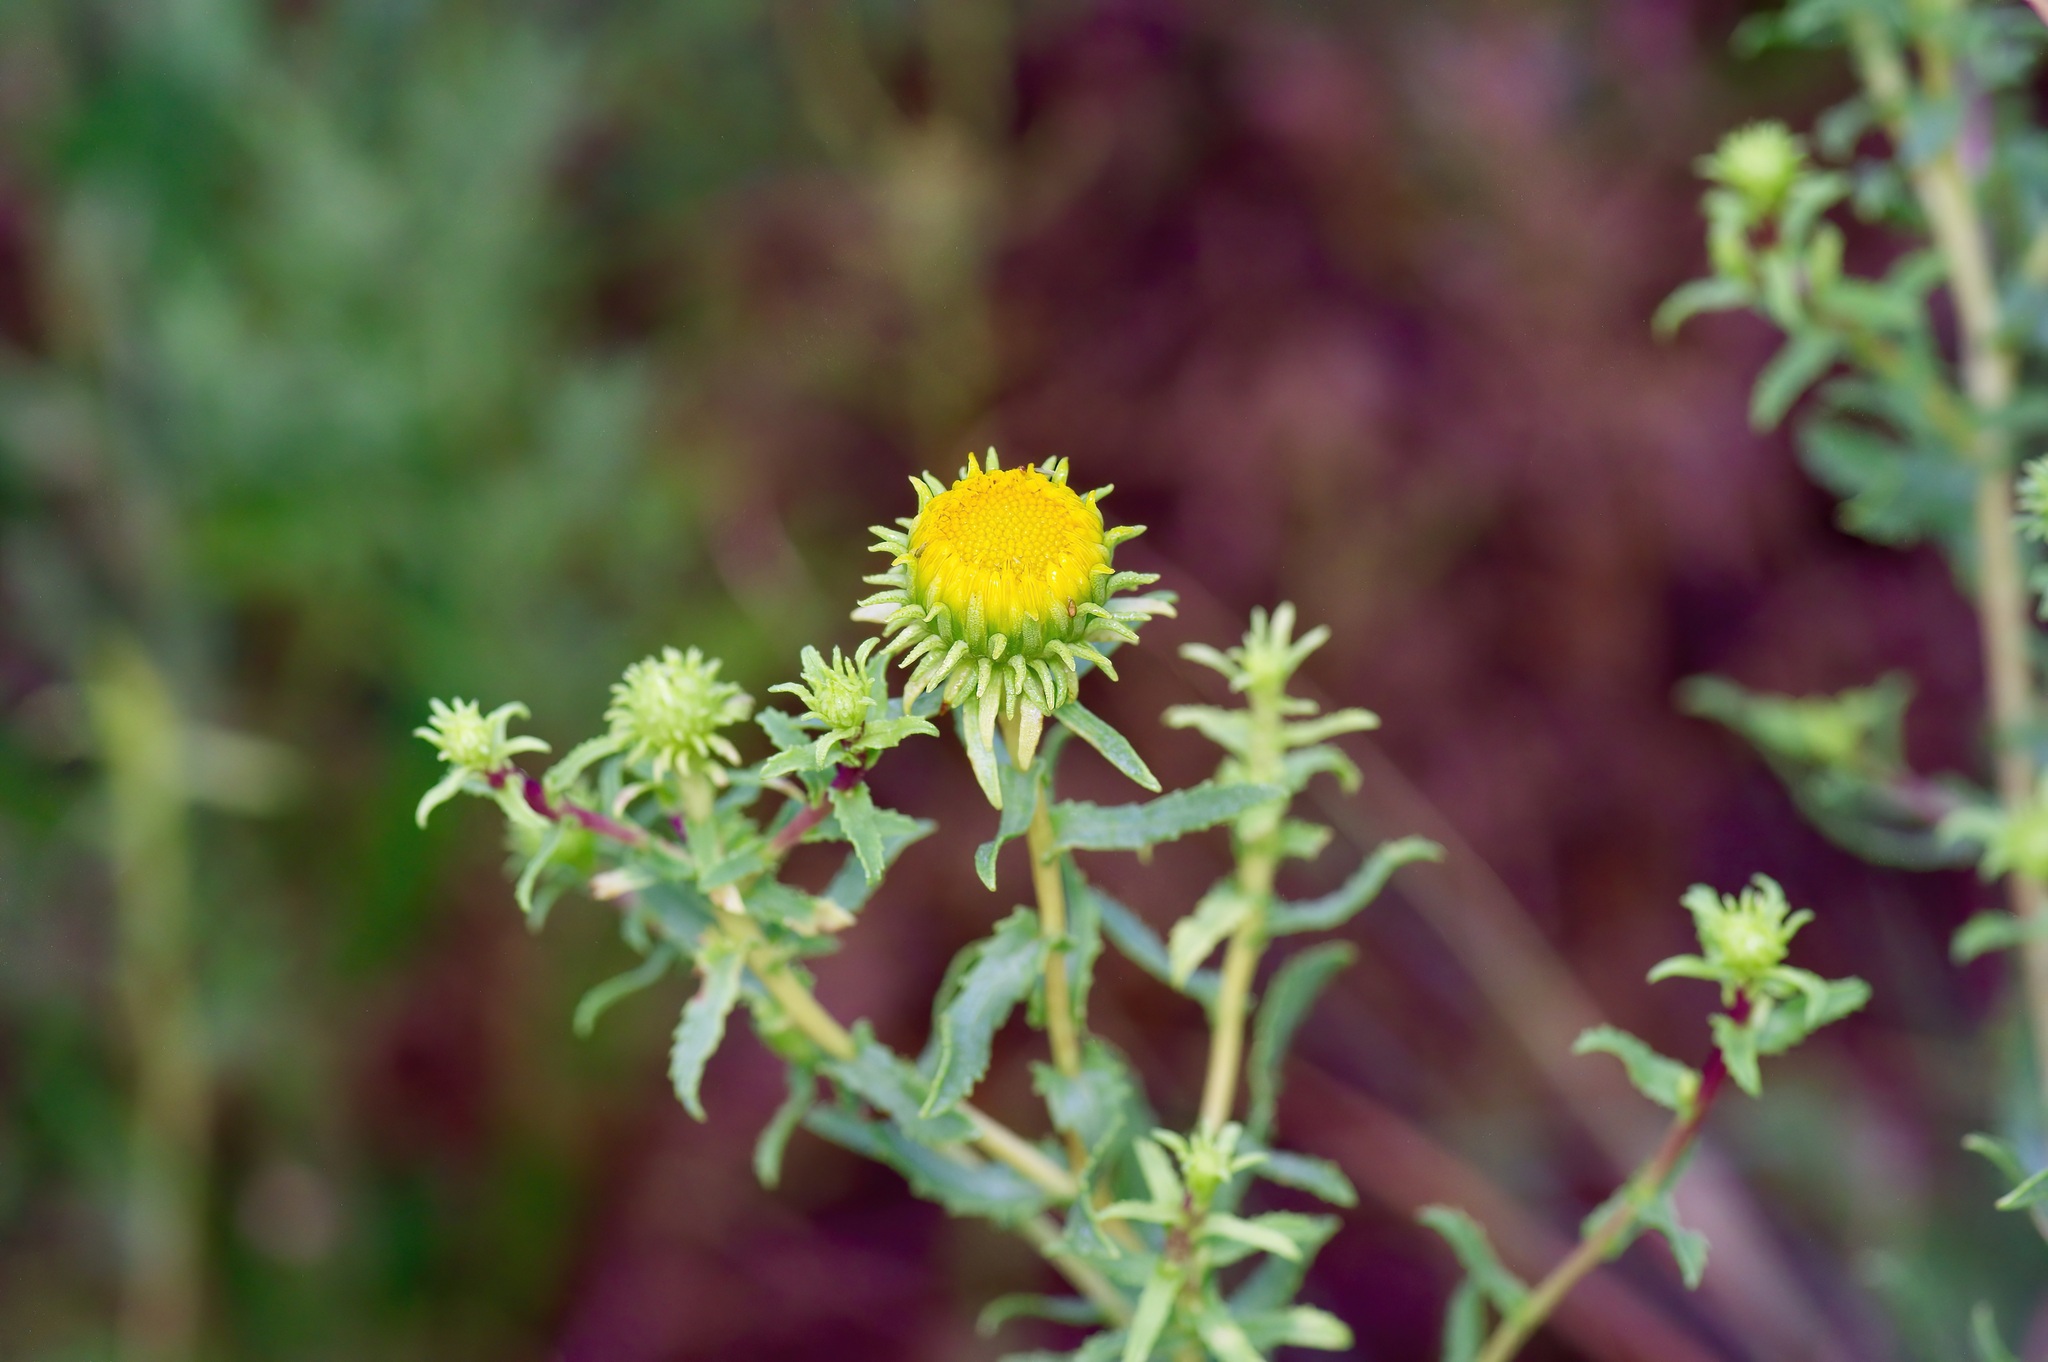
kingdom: Plantae
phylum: Tracheophyta
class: Magnoliopsida
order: Asterales
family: Asteraceae
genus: Grindelia
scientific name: Grindelia nuda
